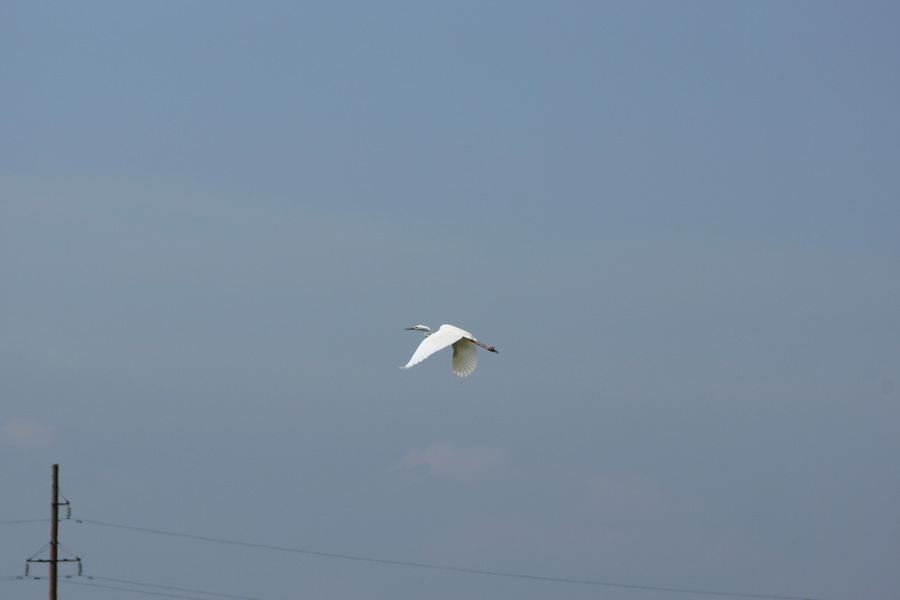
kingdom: Animalia
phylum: Chordata
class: Aves
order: Pelecaniformes
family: Ardeidae
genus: Ardea
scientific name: Ardea alba
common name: Great egret
